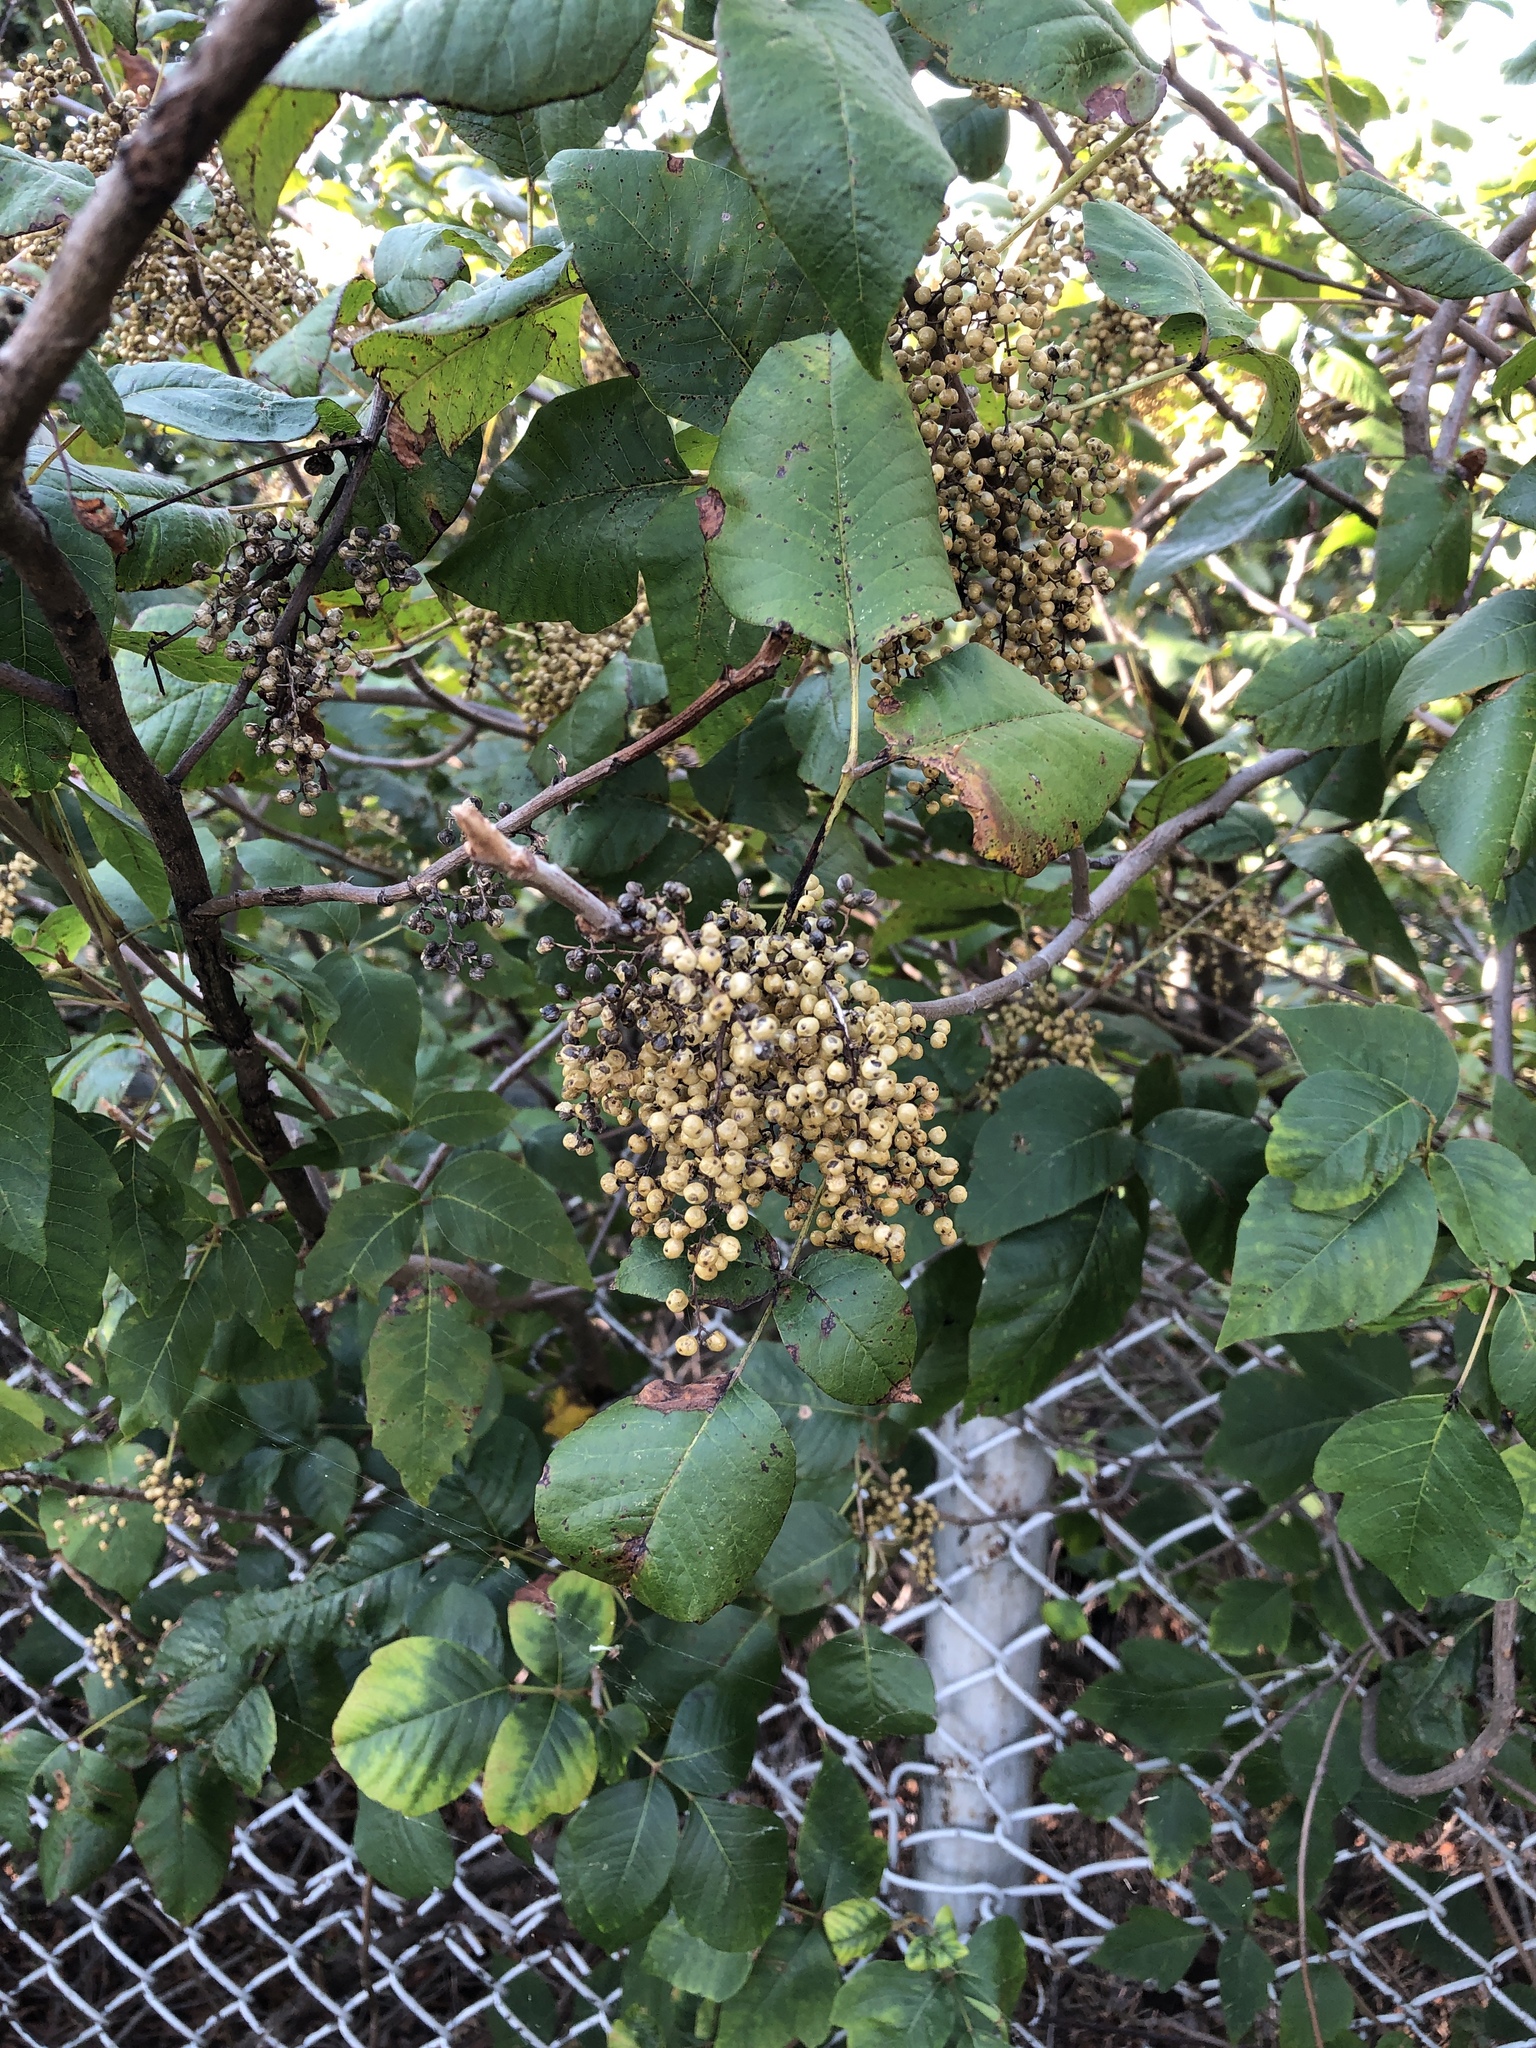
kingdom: Plantae
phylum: Tracheophyta
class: Magnoliopsida
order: Sapindales
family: Anacardiaceae
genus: Toxicodendron
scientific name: Toxicodendron radicans
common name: Poison ivy
